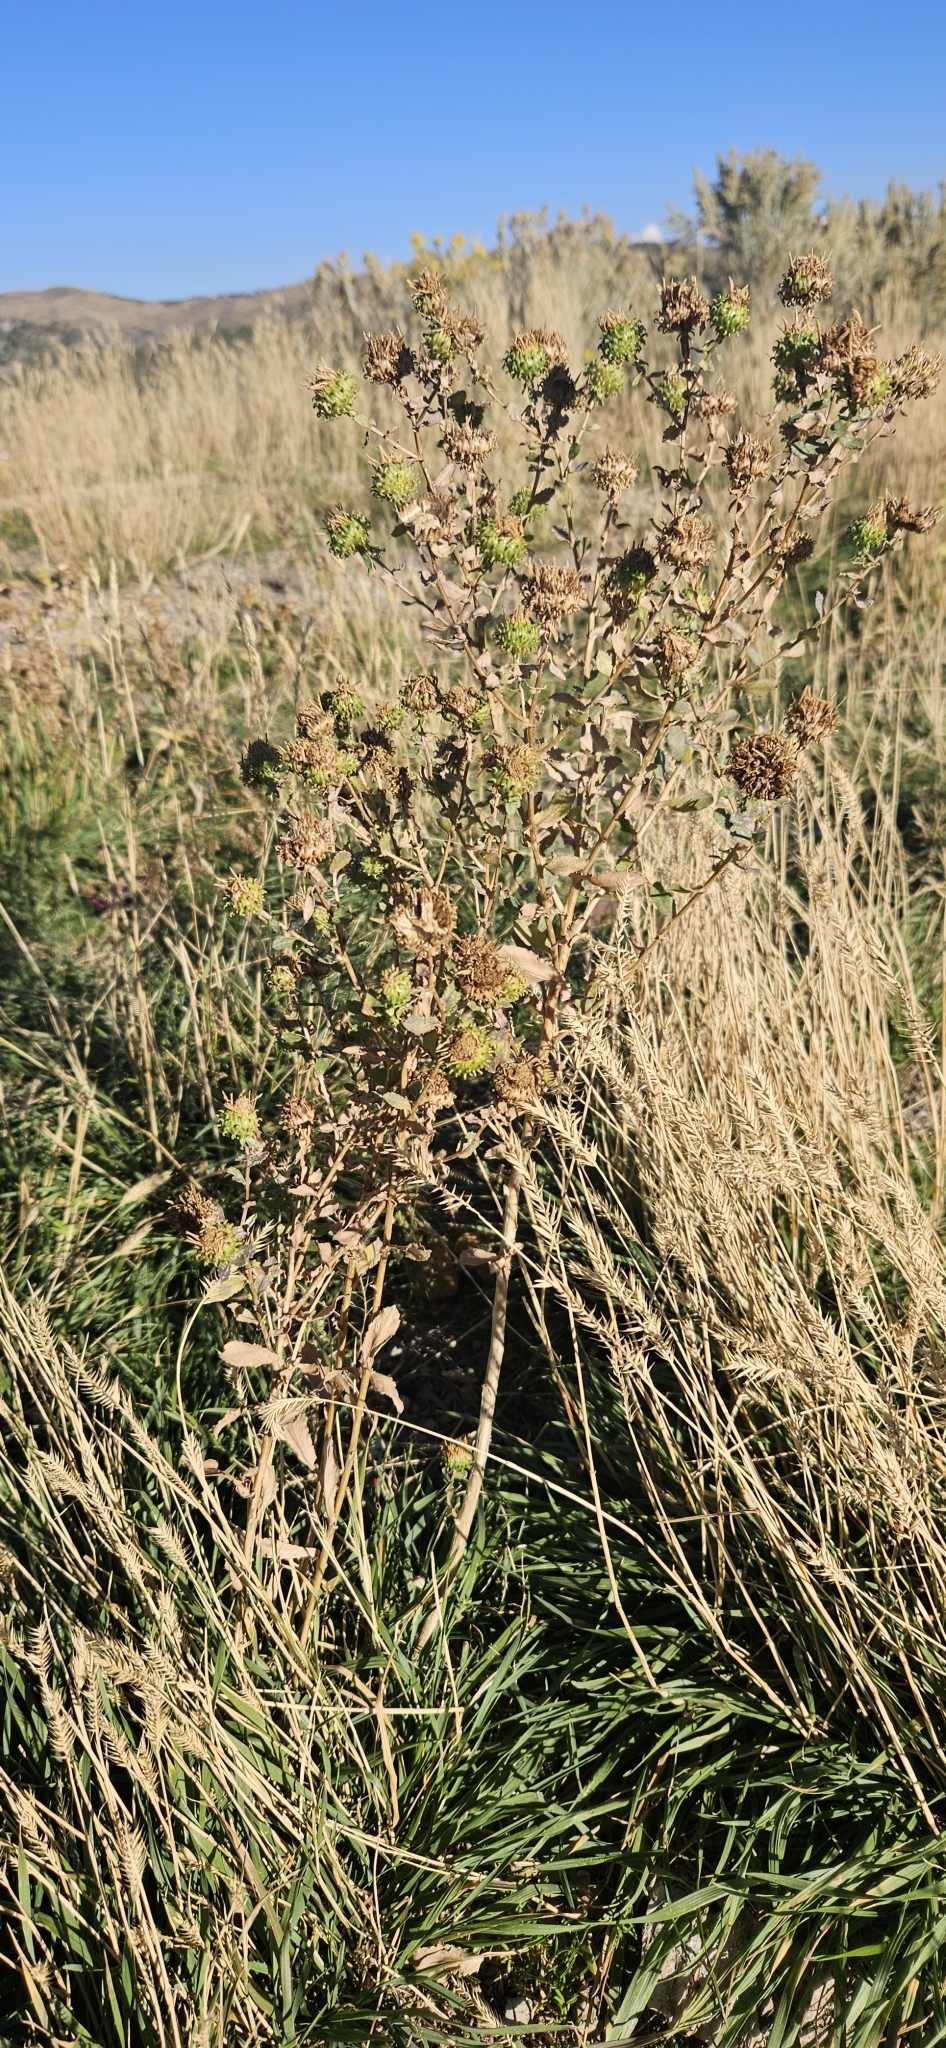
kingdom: Plantae
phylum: Tracheophyta
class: Magnoliopsida
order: Asterales
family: Asteraceae
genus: Grindelia
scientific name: Grindelia squarrosa
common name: Curly-cup gumweed
